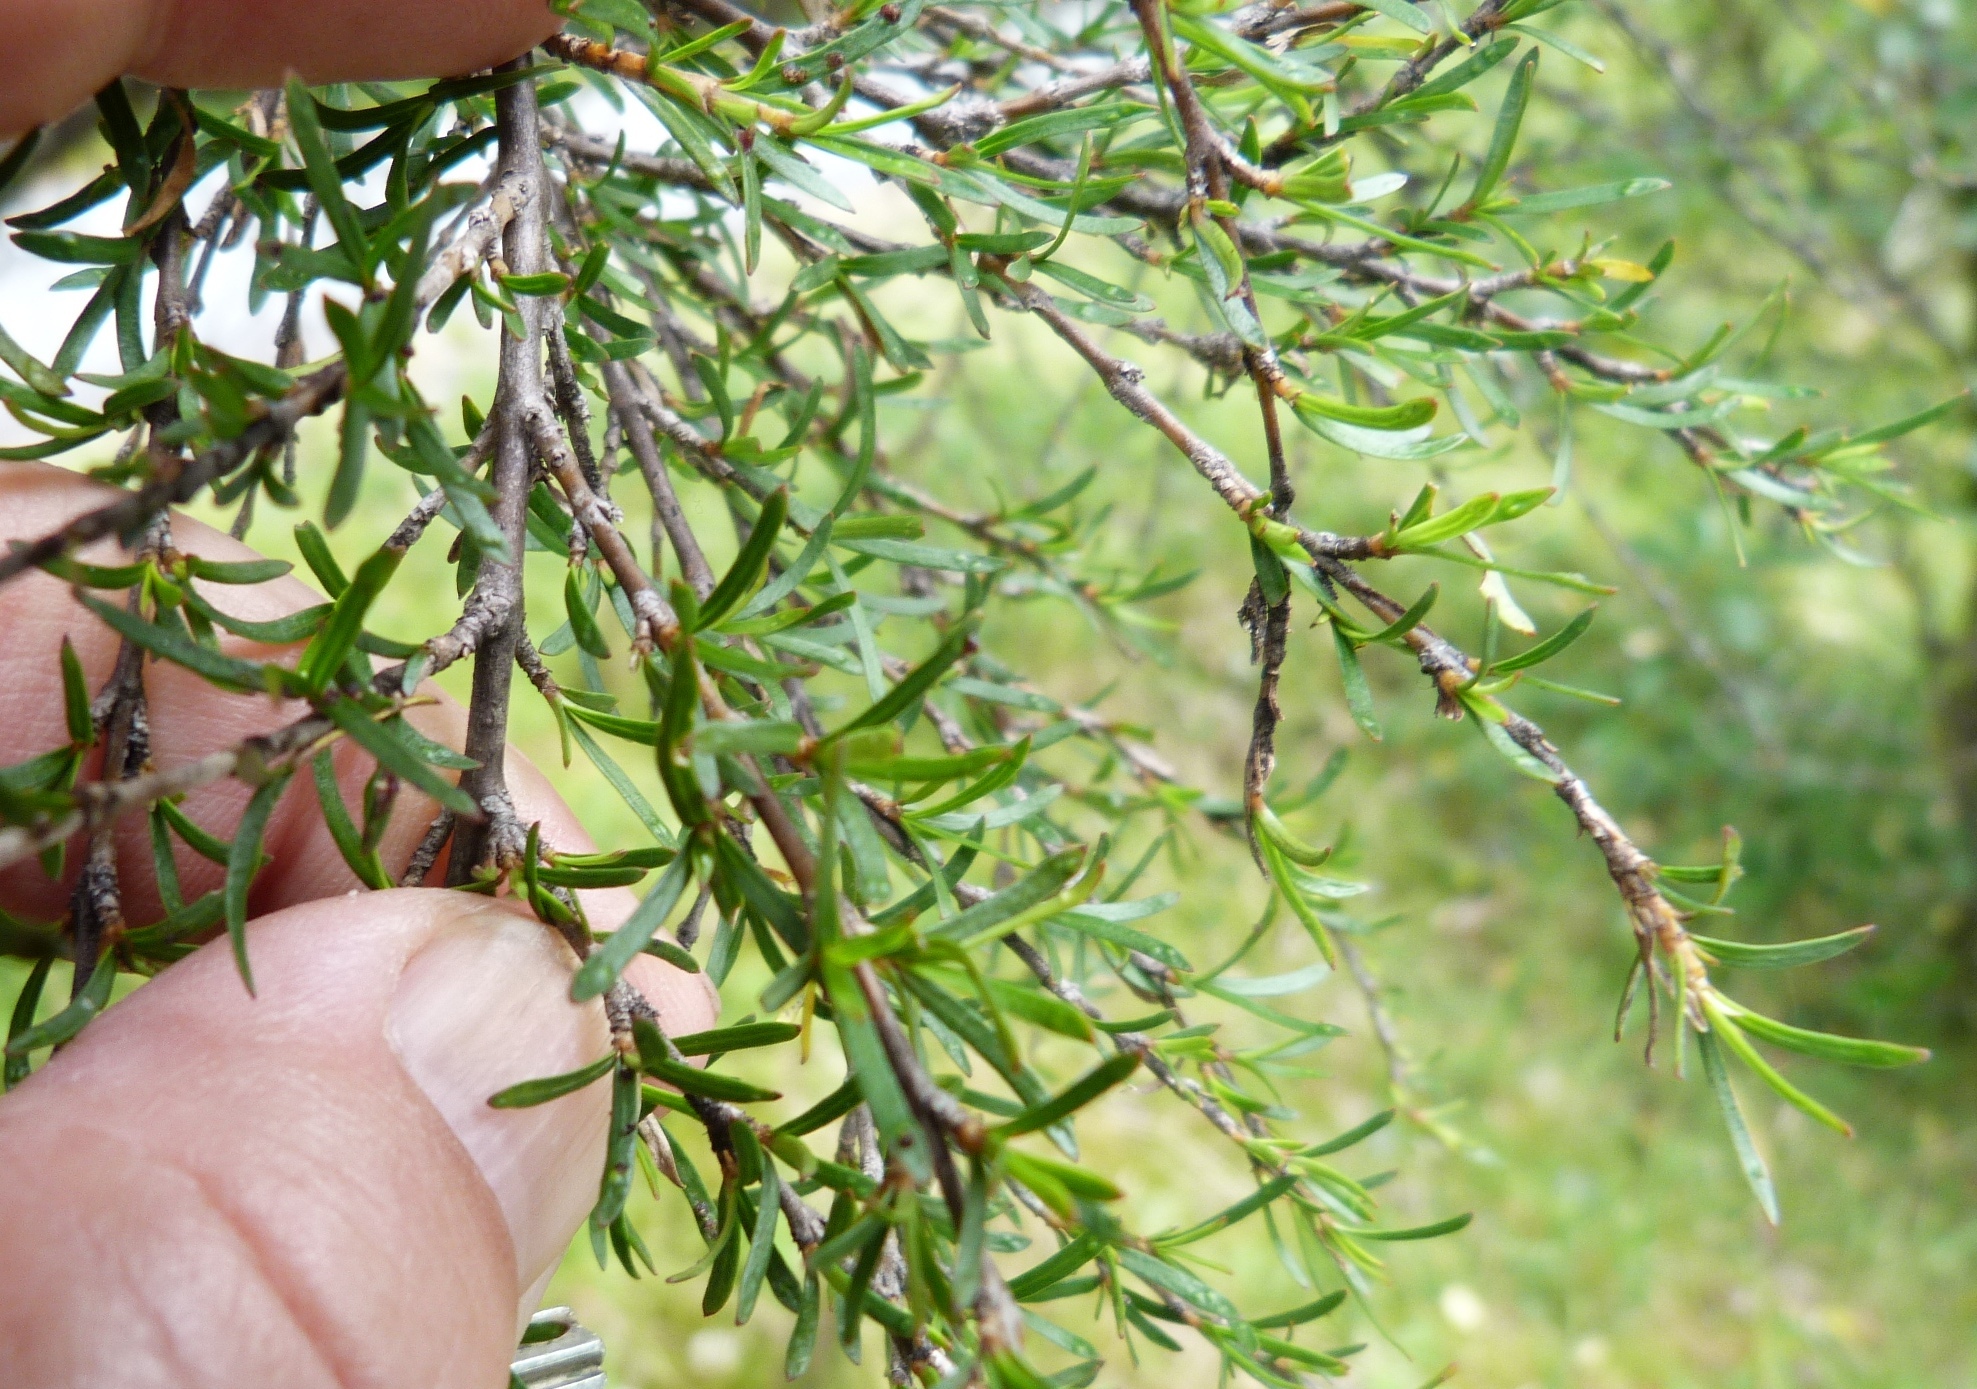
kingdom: Plantae
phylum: Tracheophyta
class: Magnoliopsida
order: Gentianales
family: Rubiaceae
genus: Coprosma
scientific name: Coprosma rugosa
